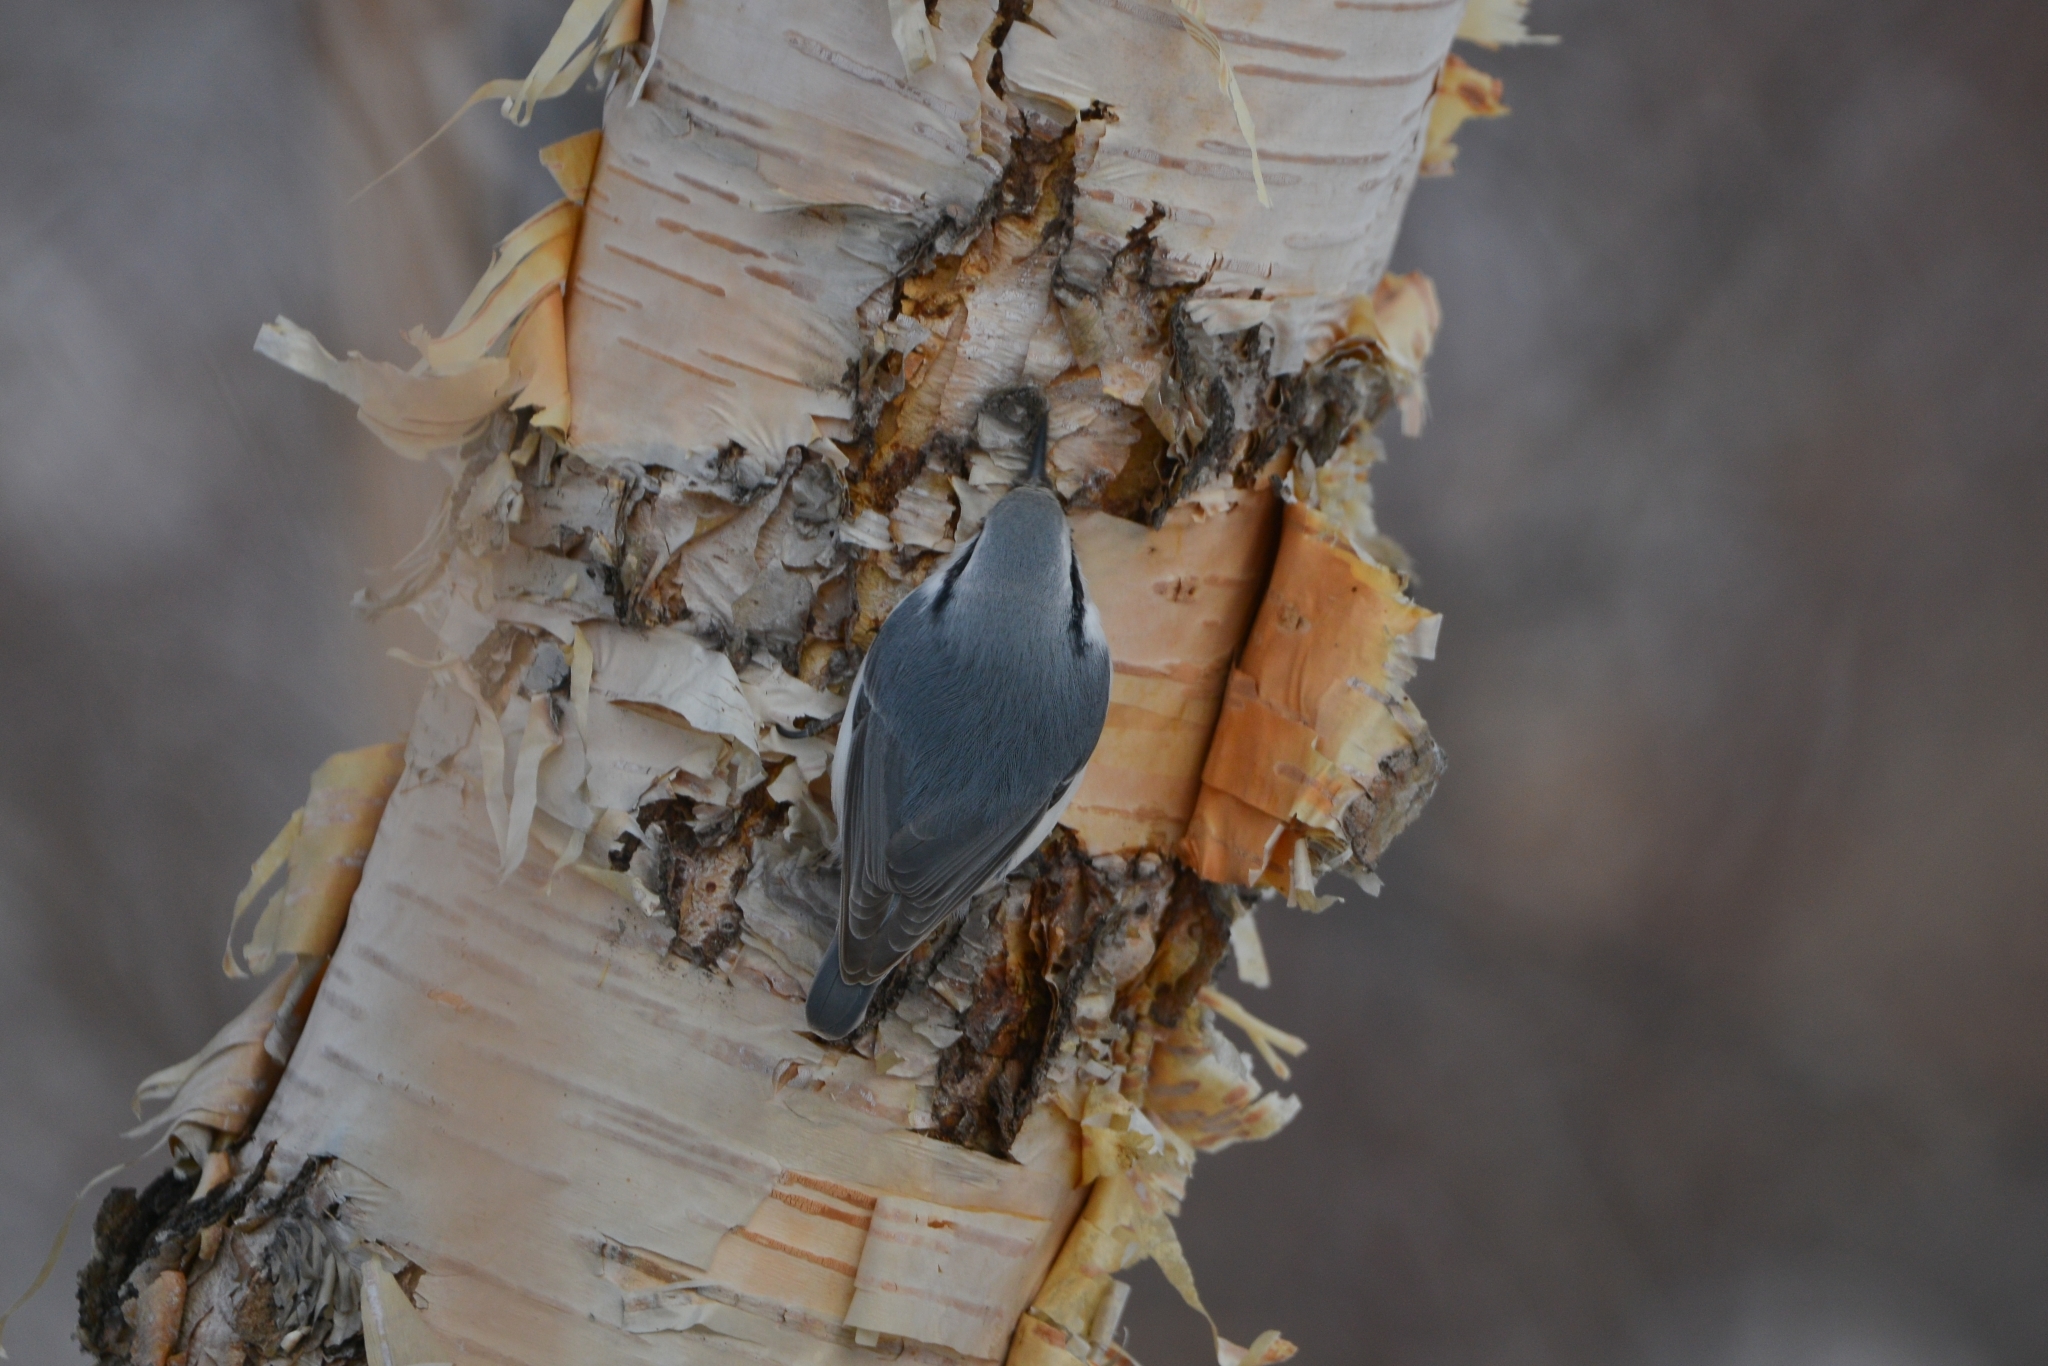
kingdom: Animalia
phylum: Chordata
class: Aves
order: Passeriformes
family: Sittidae
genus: Sitta
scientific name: Sitta europaea
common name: Eurasian nuthatch
